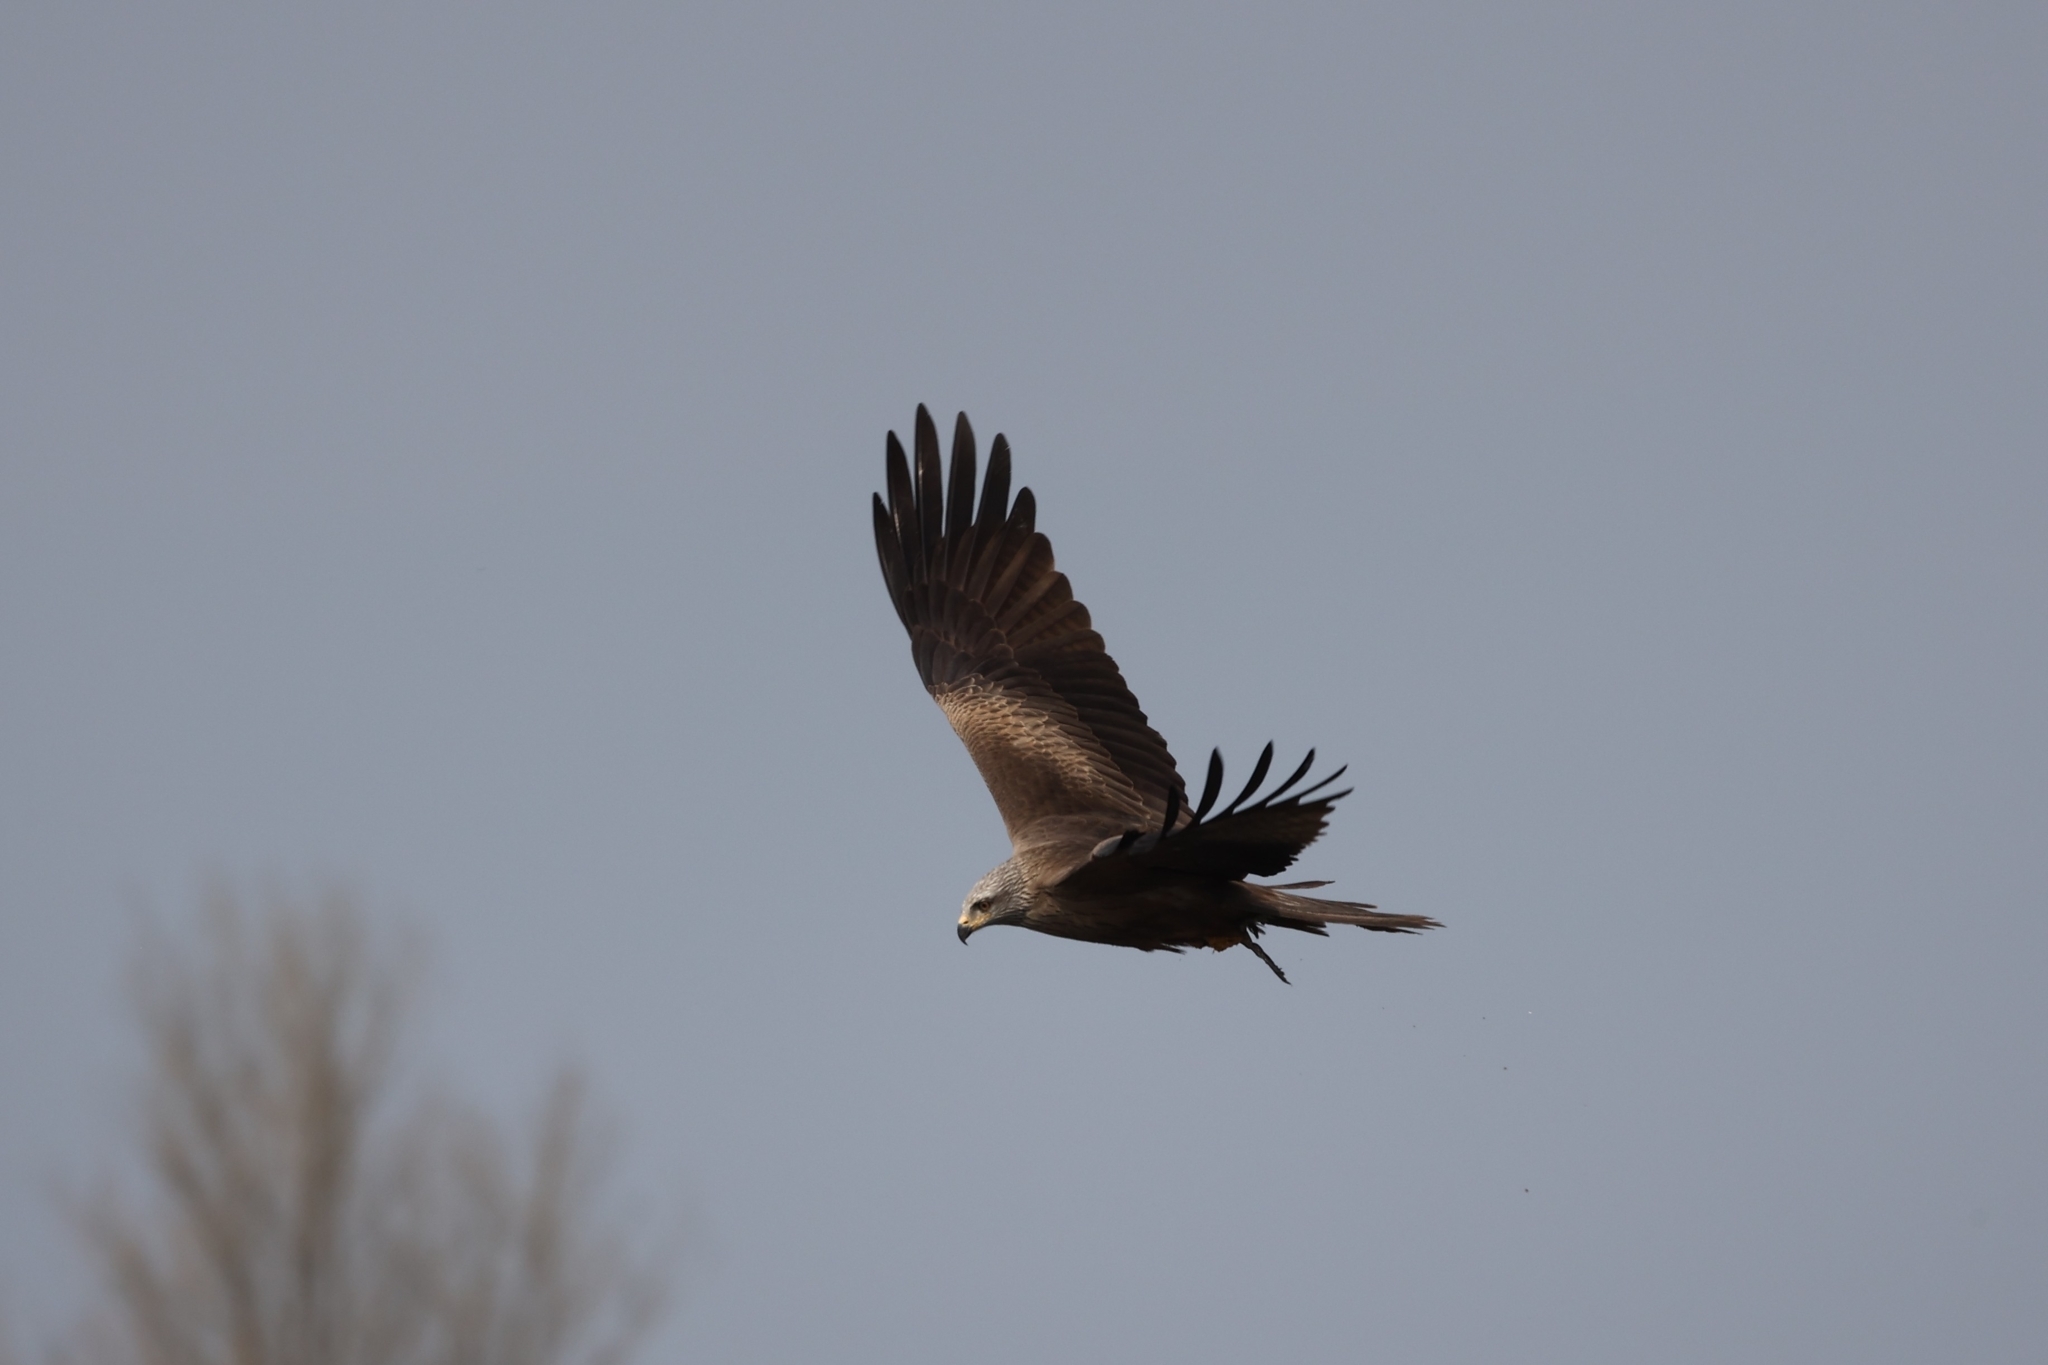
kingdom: Animalia
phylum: Chordata
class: Aves
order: Accipitriformes
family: Accipitridae
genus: Milvus
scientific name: Milvus migrans
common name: Black kite
